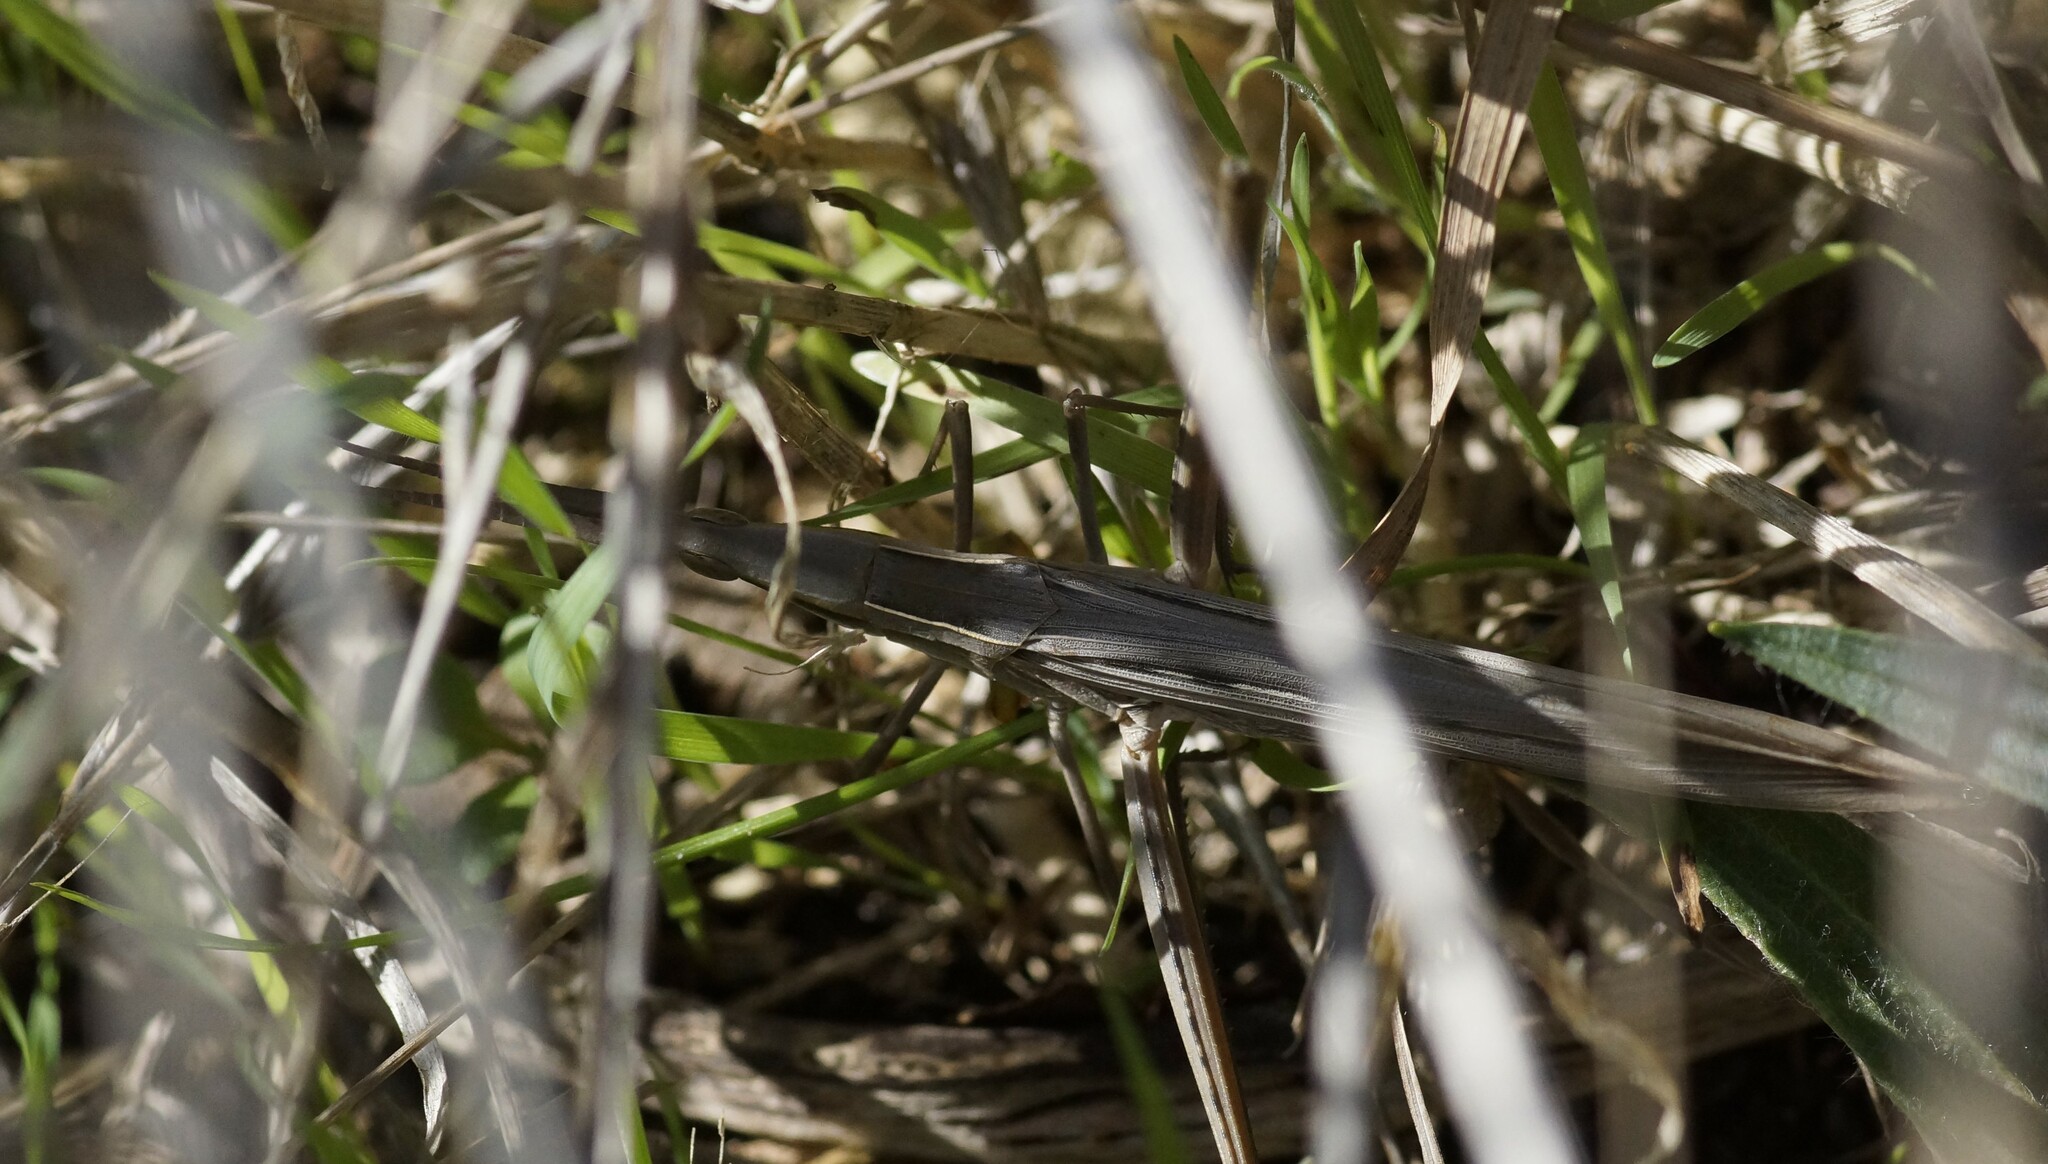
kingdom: Animalia
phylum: Arthropoda
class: Insecta
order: Orthoptera
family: Acrididae
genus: Acrida
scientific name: Acrida conica
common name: Giant green slantface
